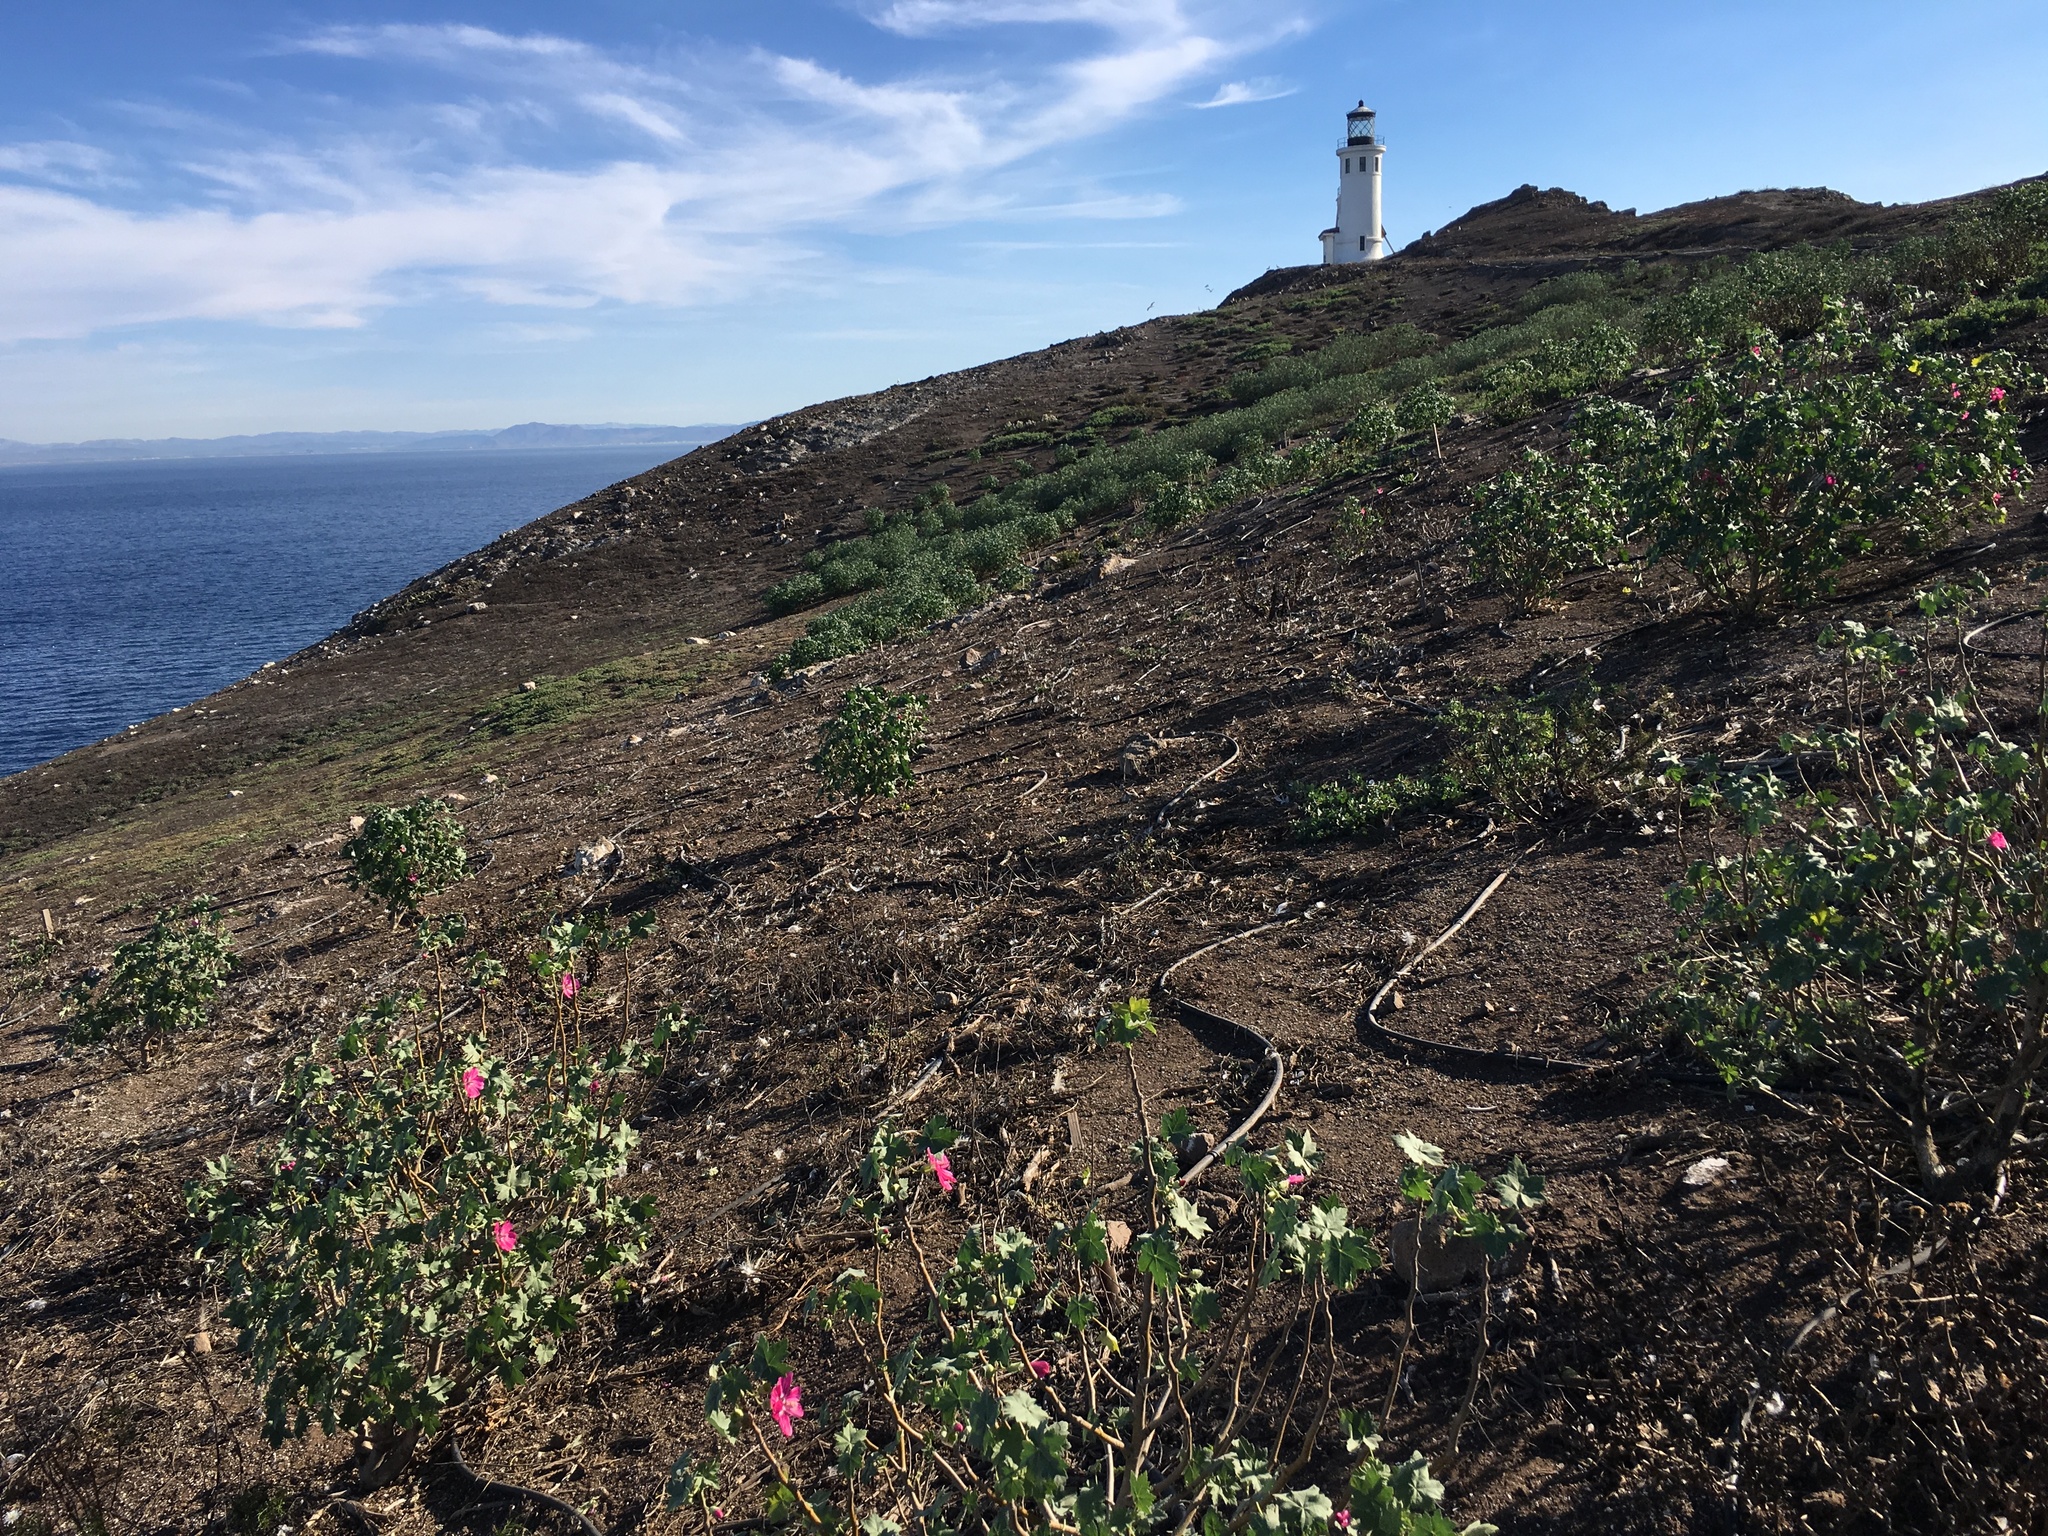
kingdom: Plantae
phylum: Tracheophyta
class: Magnoliopsida
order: Malvales
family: Malvaceae
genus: Malva
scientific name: Malva assurgentiflora
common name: Island mallow
